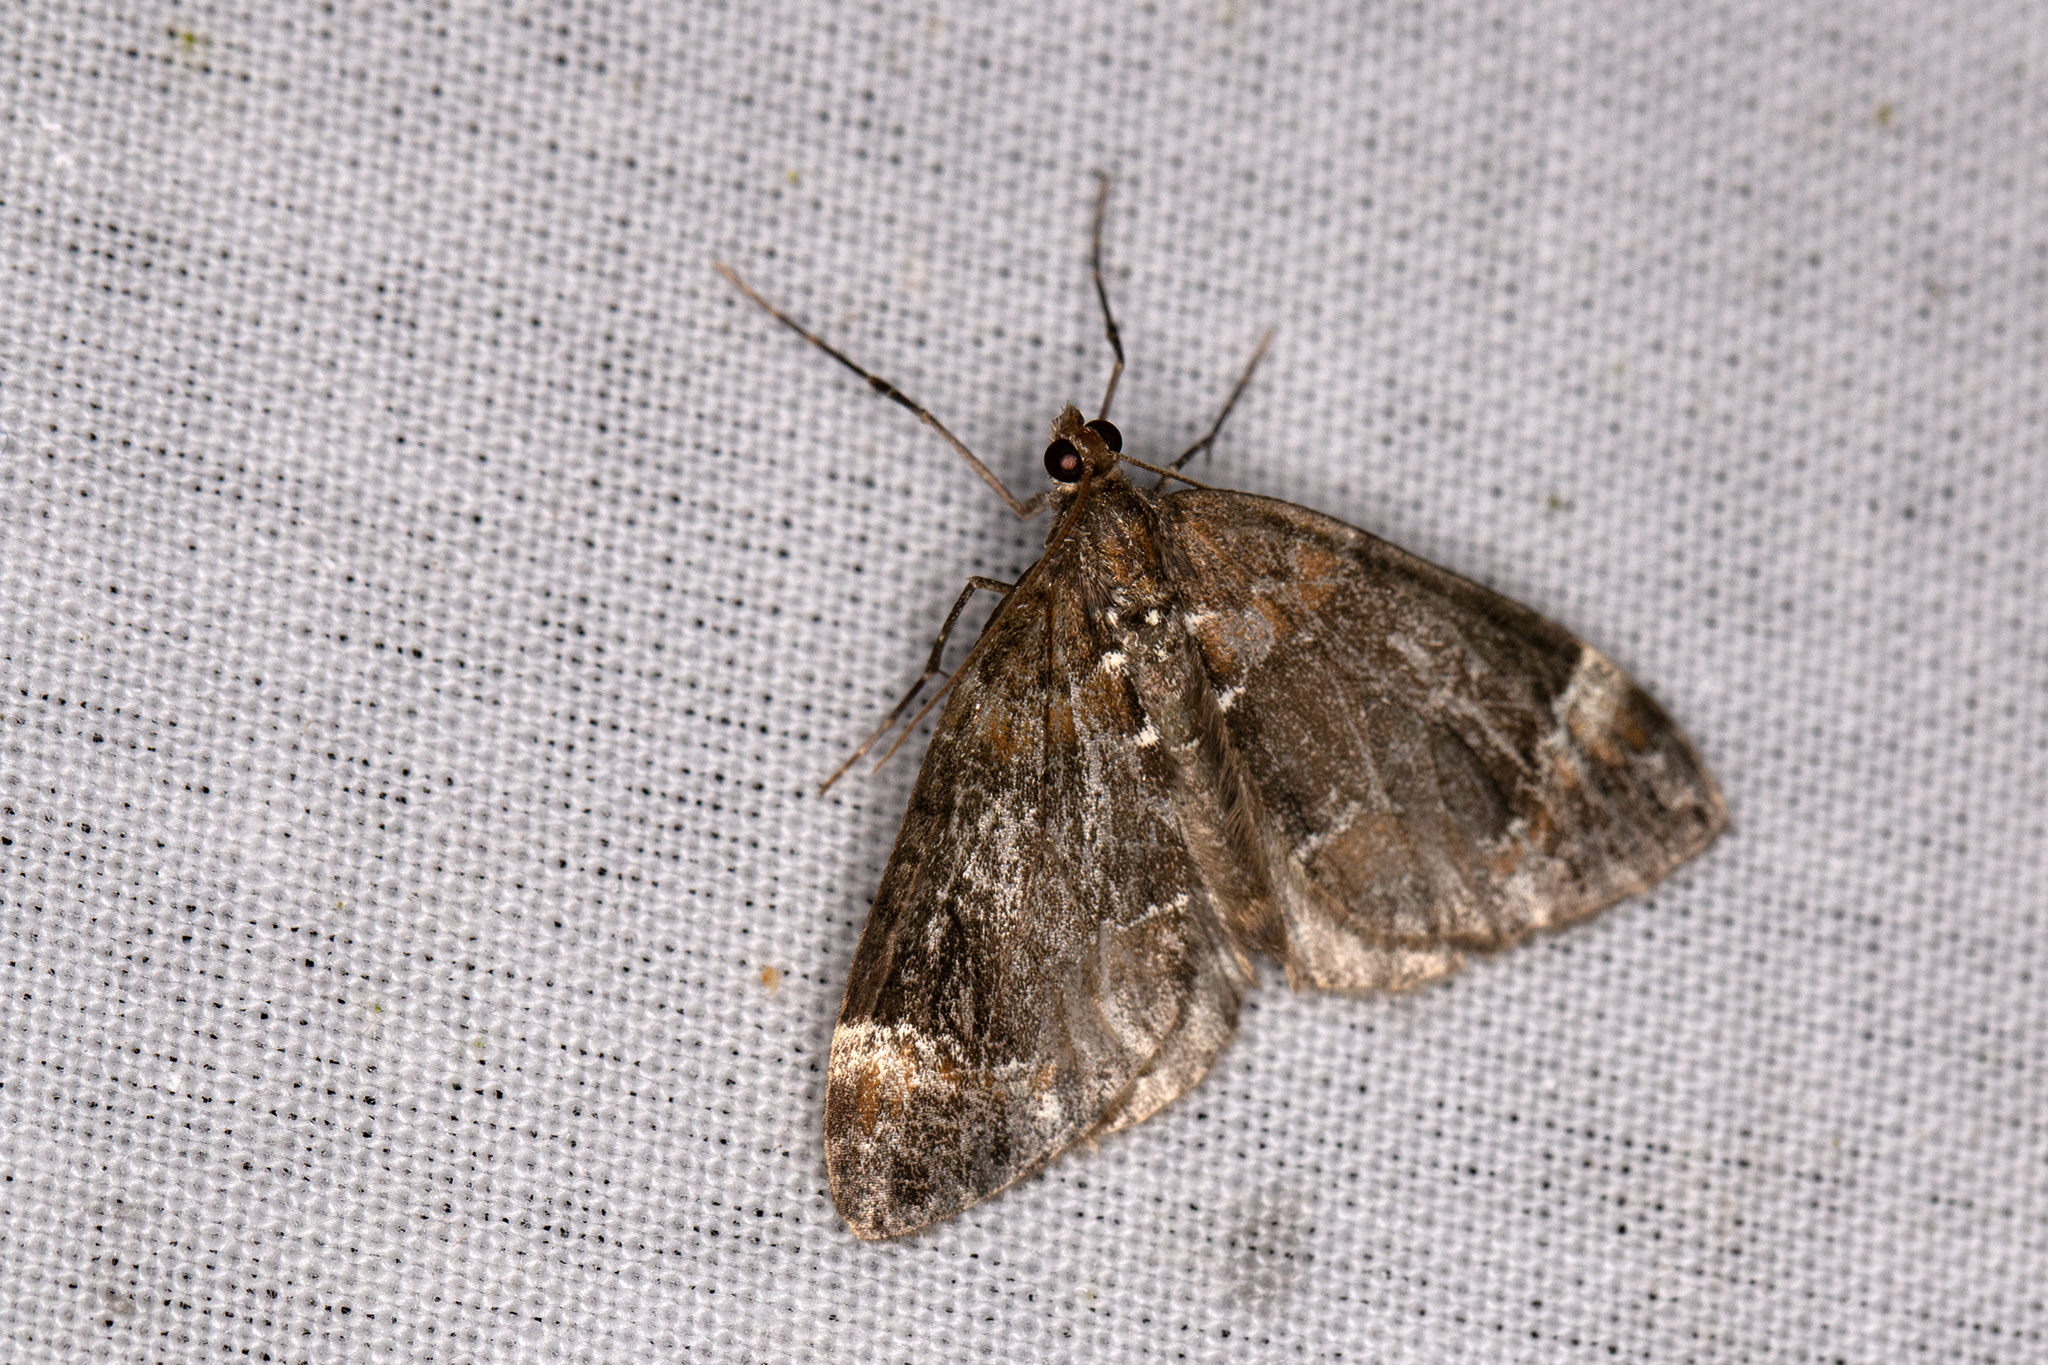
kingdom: Animalia
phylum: Arthropoda
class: Insecta
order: Lepidoptera
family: Geometridae
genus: Dysstroma
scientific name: Dysstroma truncata
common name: Common marbled carpet
